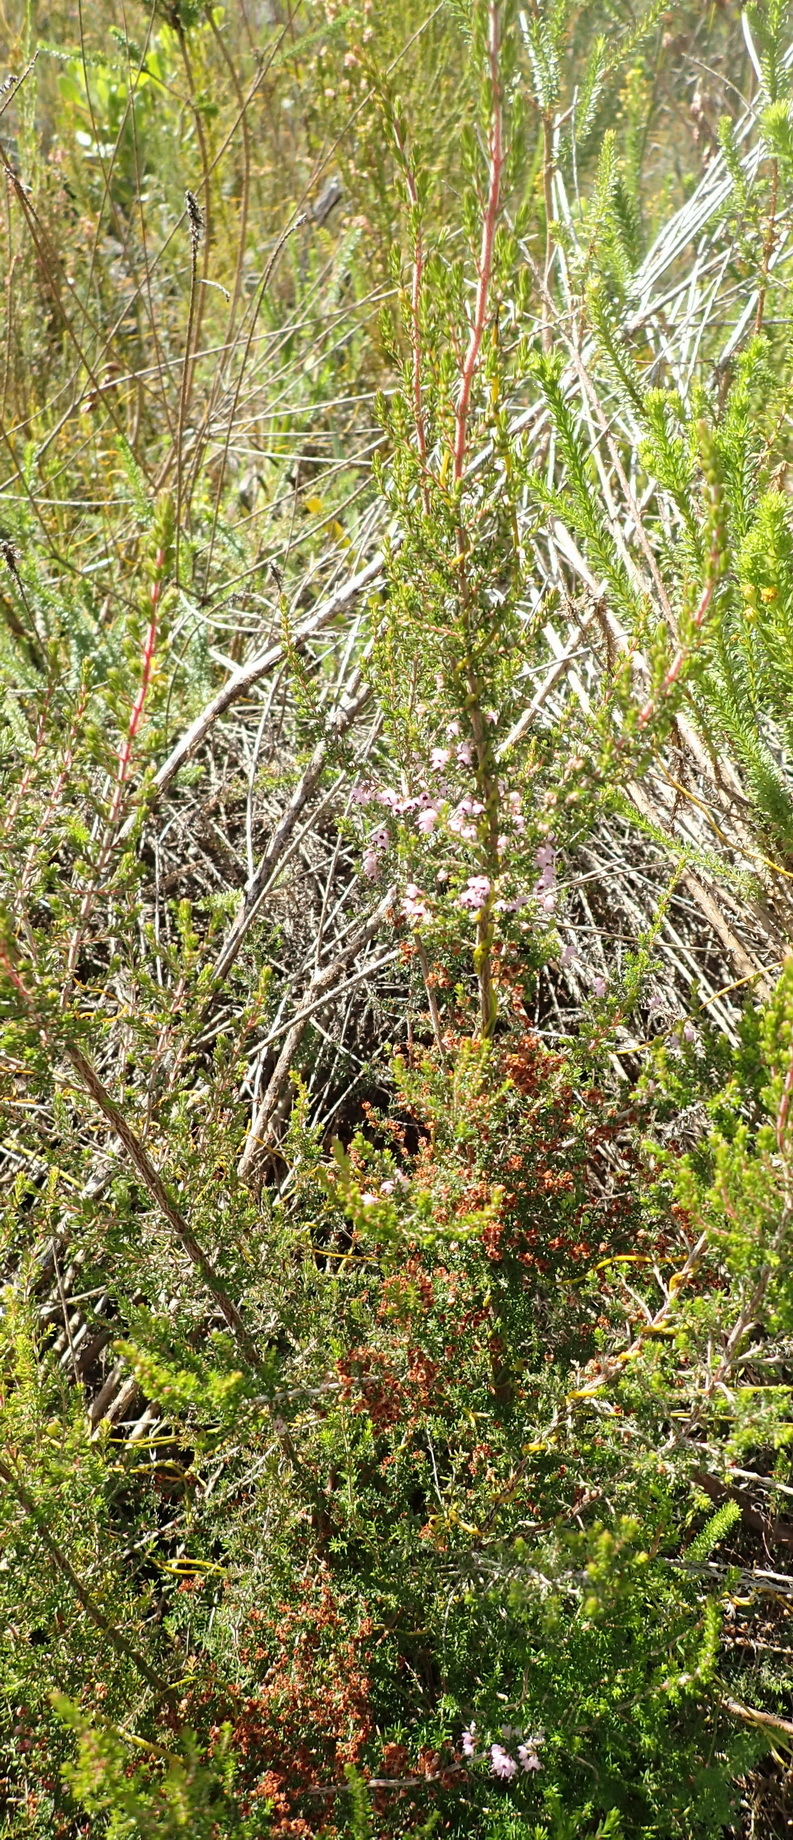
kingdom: Plantae
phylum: Tracheophyta
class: Magnoliopsida
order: Ericales
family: Ericaceae
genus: Erica
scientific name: Erica sparsa
